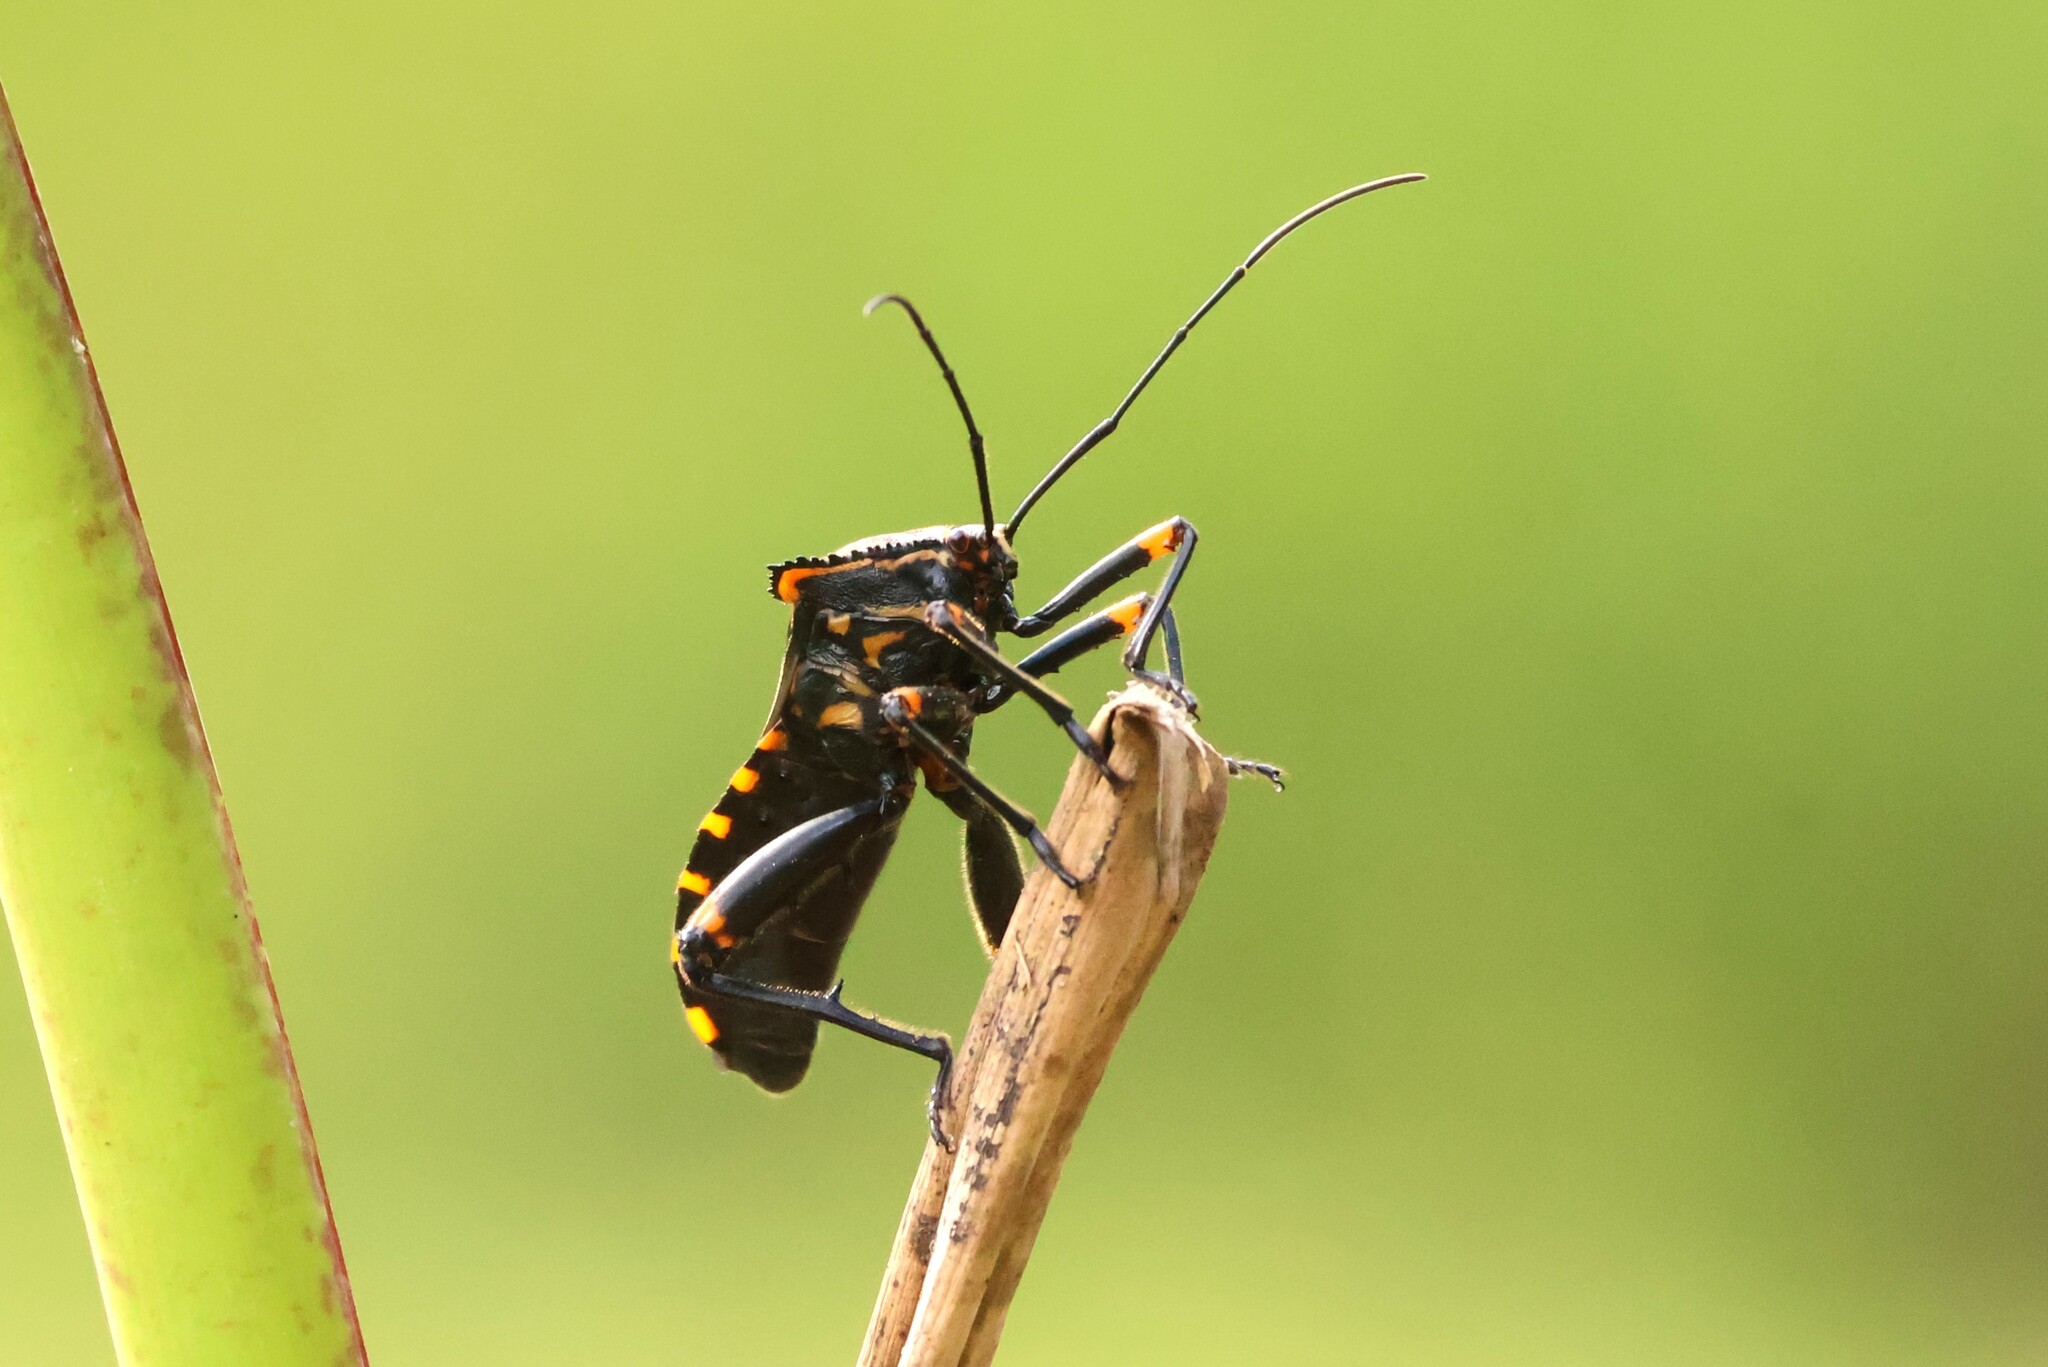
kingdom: Animalia
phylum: Arthropoda
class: Insecta
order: Hemiptera
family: Coreidae
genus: Thasopsis
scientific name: Thasopsis formidabilis
